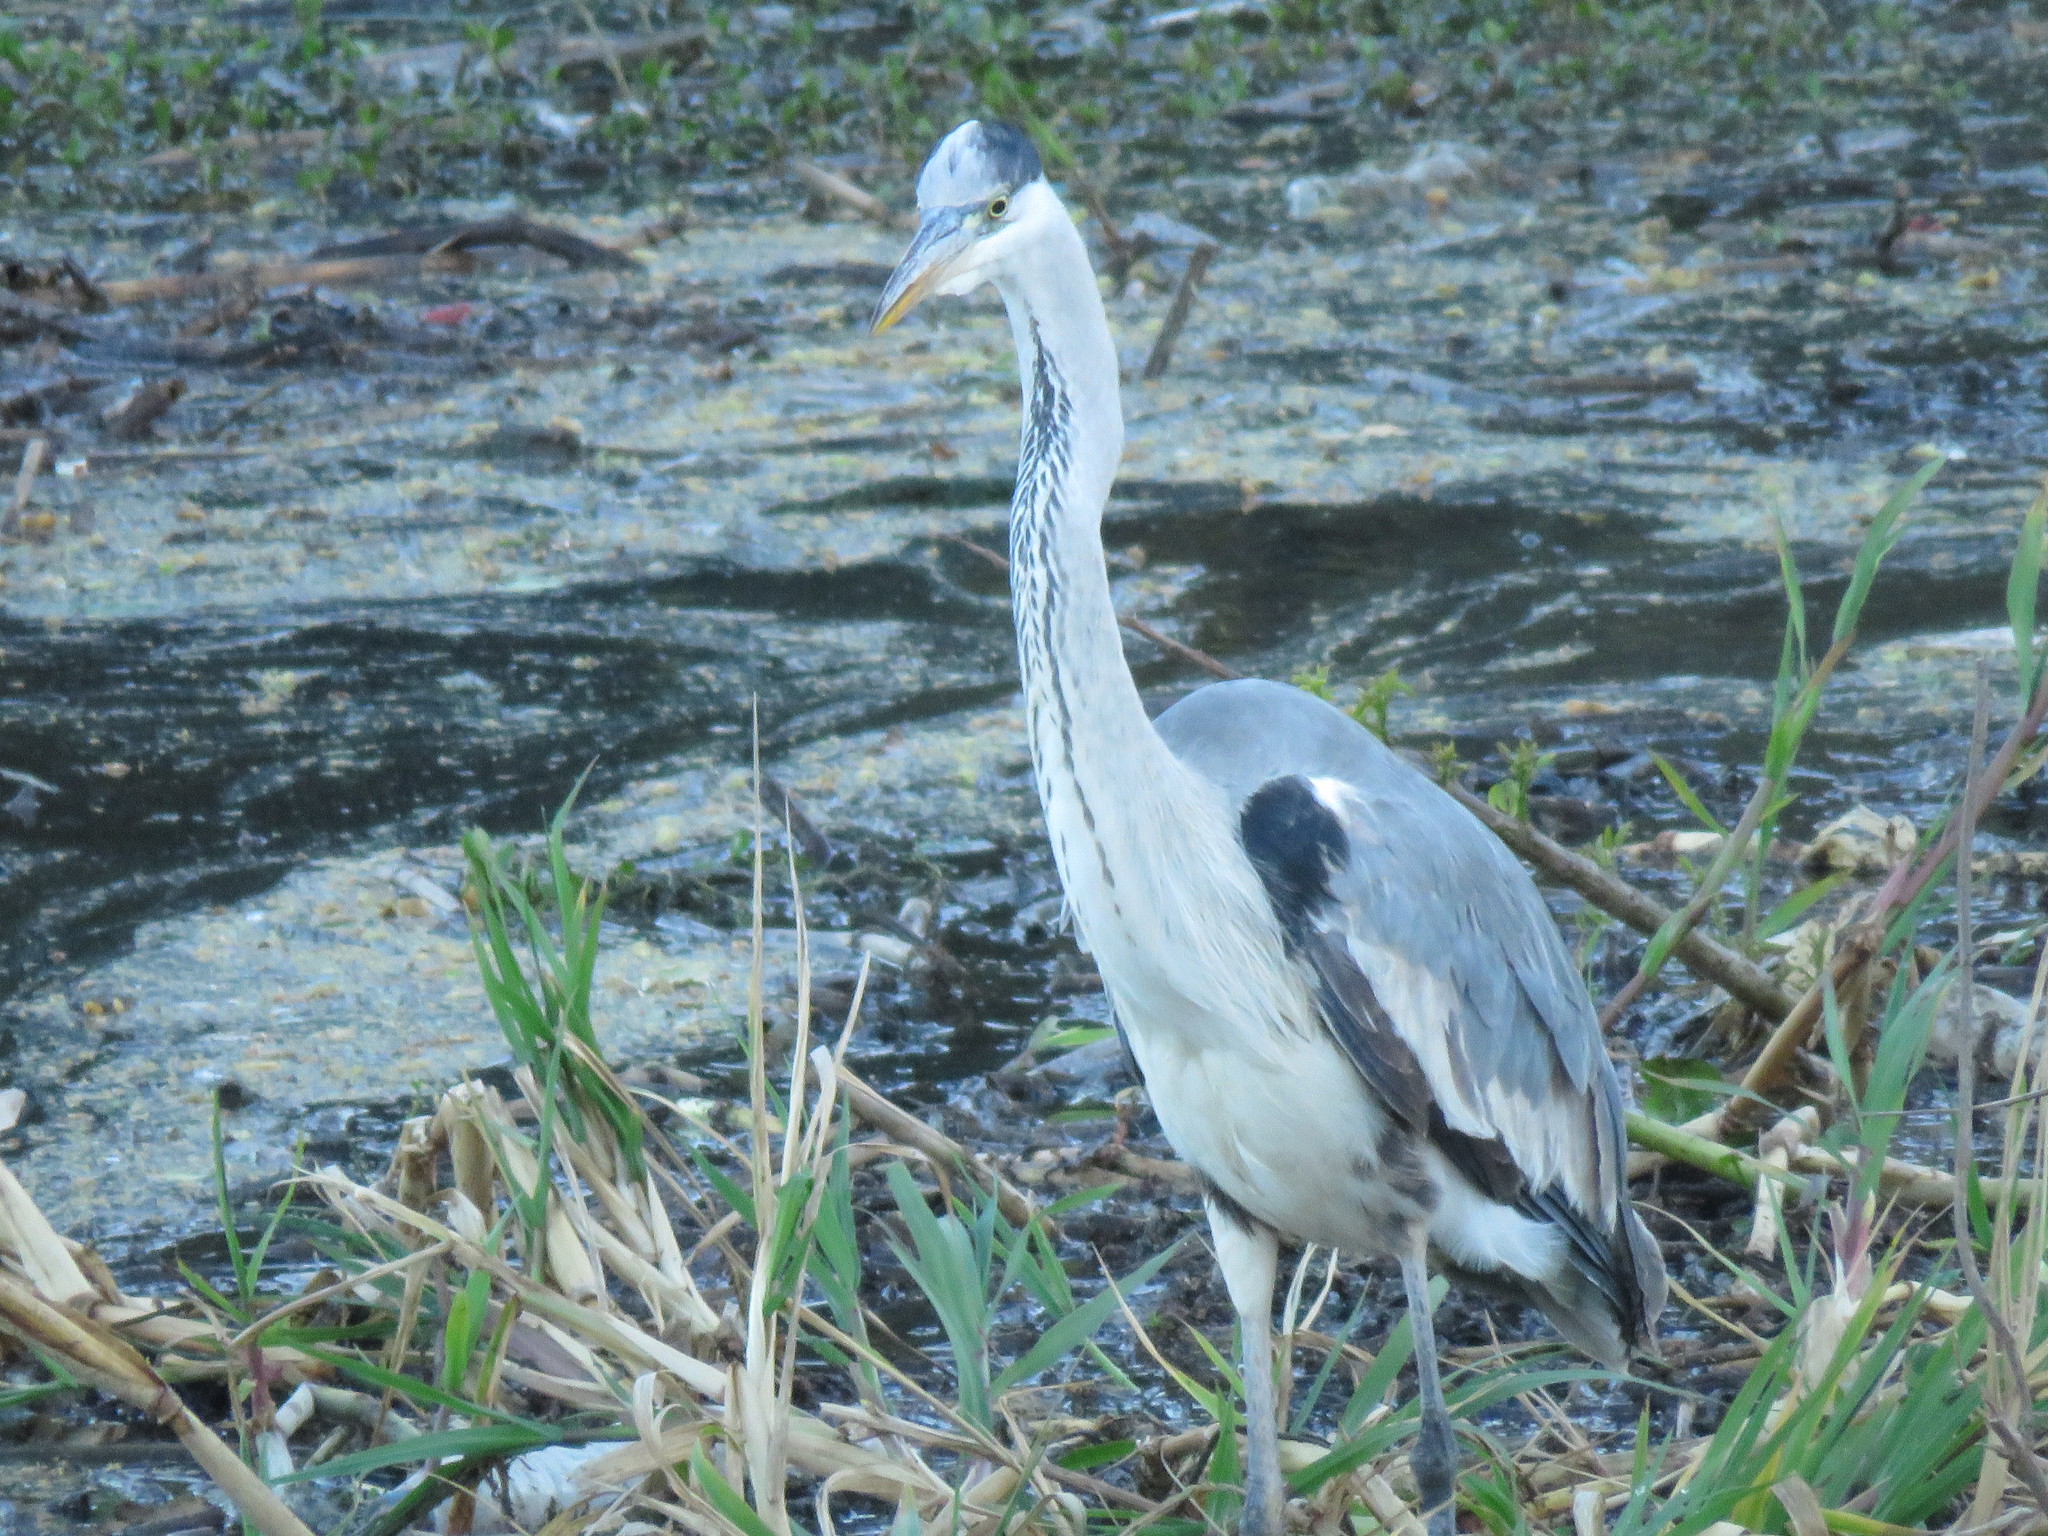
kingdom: Animalia
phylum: Chordata
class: Aves
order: Pelecaniformes
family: Ardeidae
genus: Ardea
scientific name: Ardea cocoi
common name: Cocoi heron
